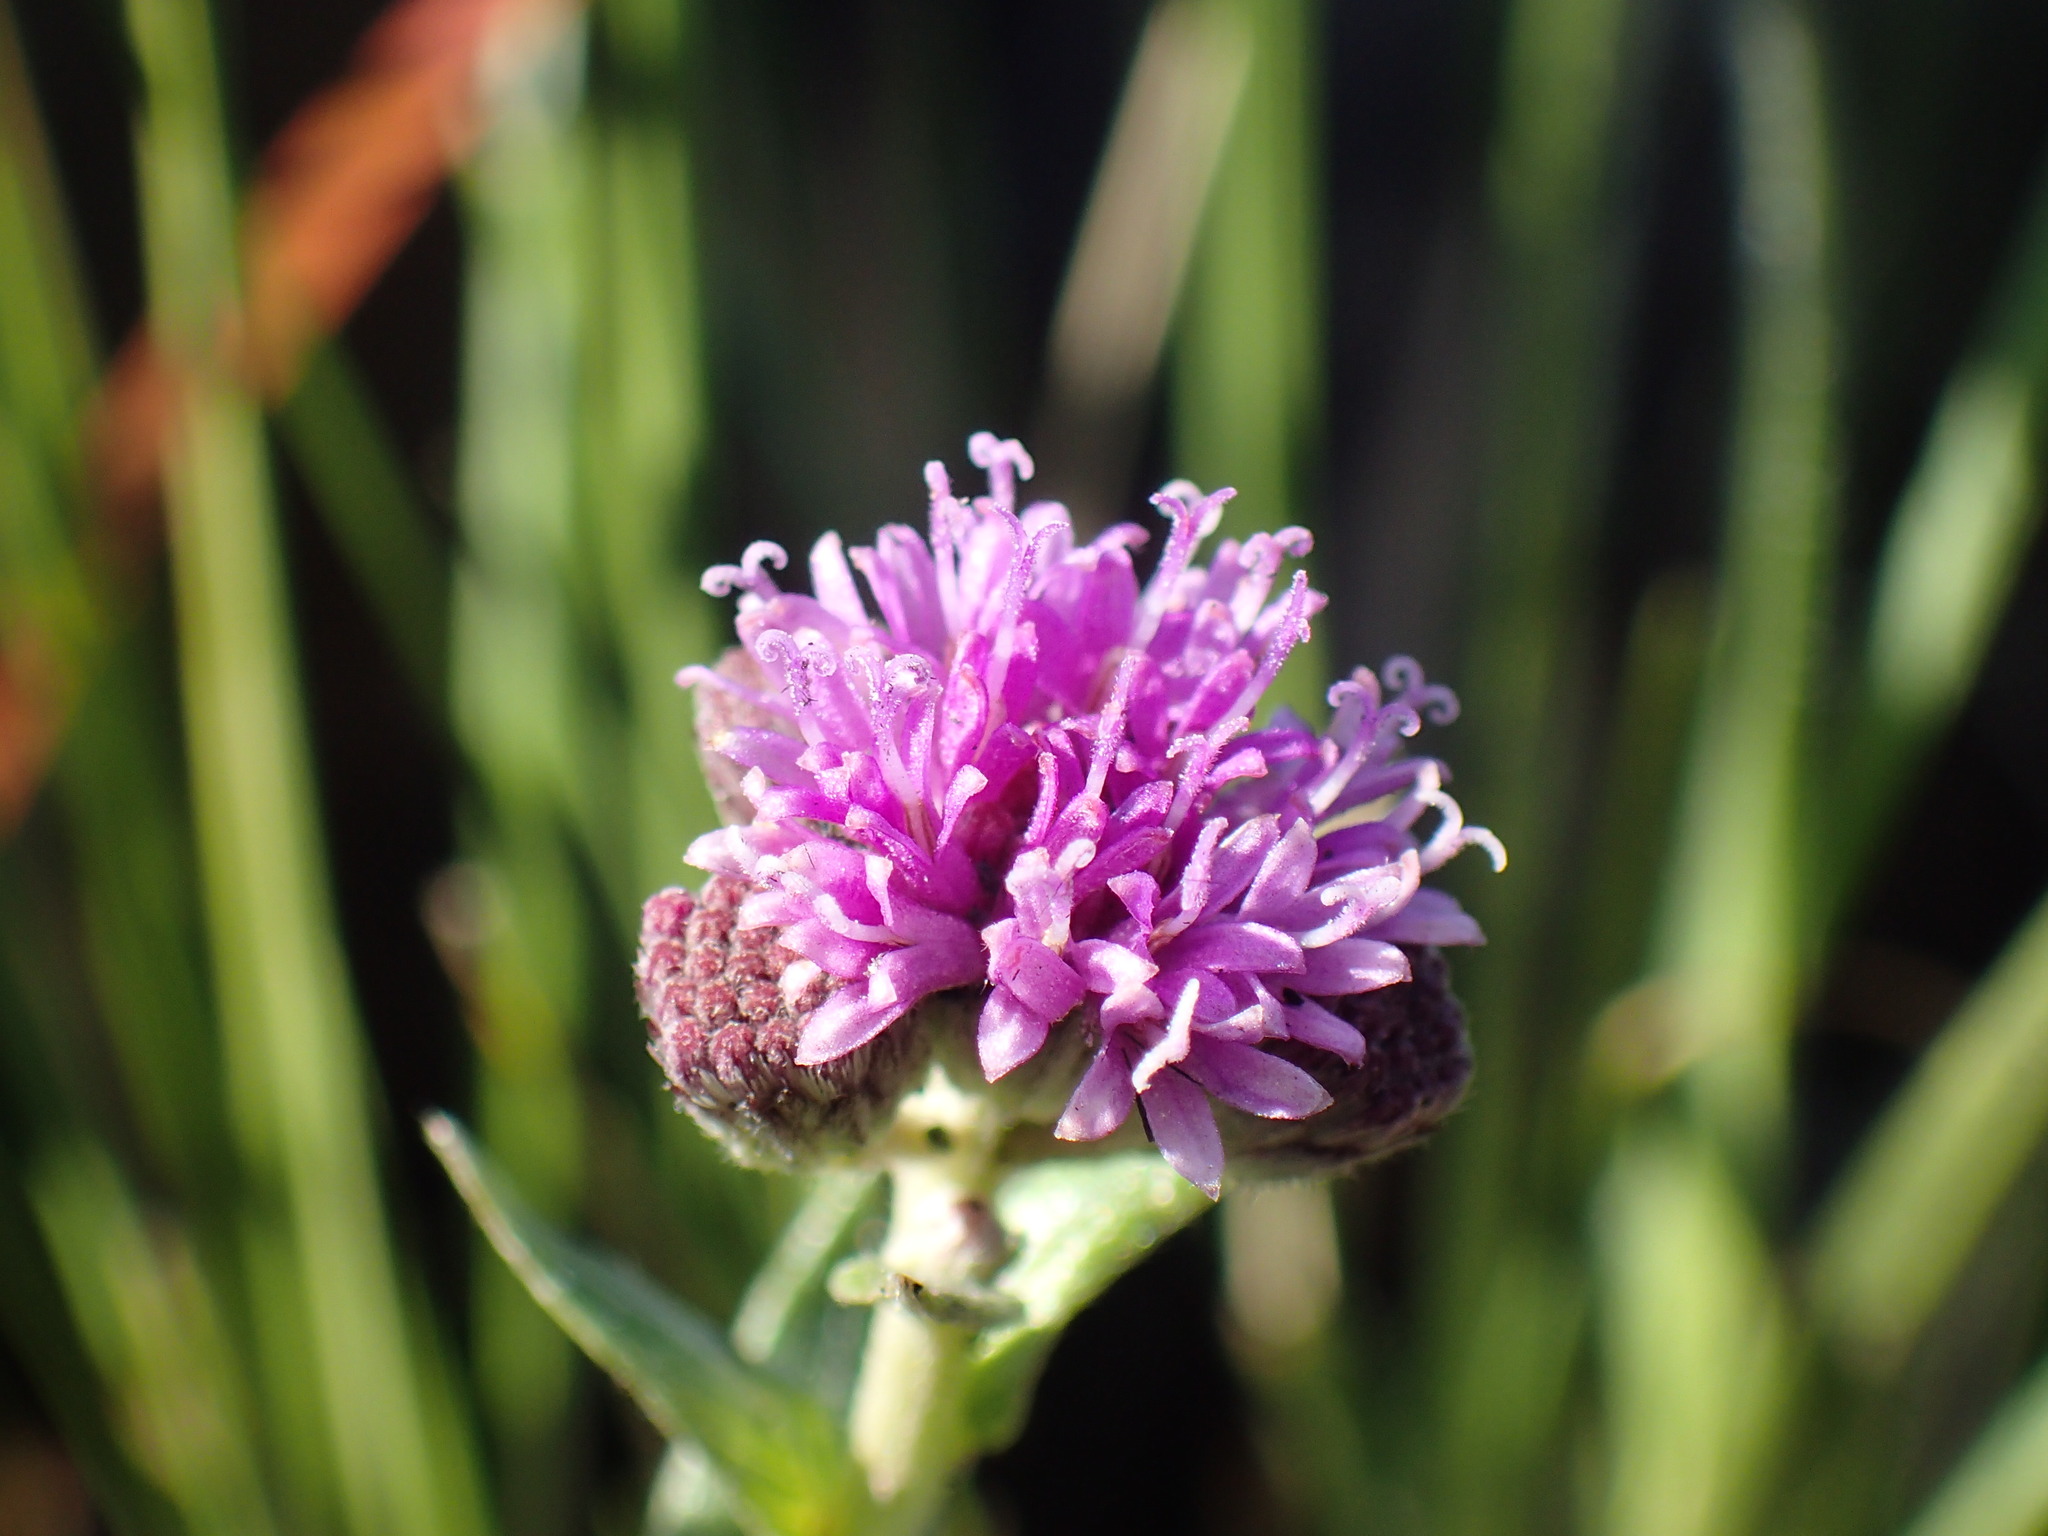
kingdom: Plantae
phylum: Tracheophyta
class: Magnoliopsida
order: Asterales
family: Asteraceae
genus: Hilliardiella
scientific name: Hilliardiella oligocephala
